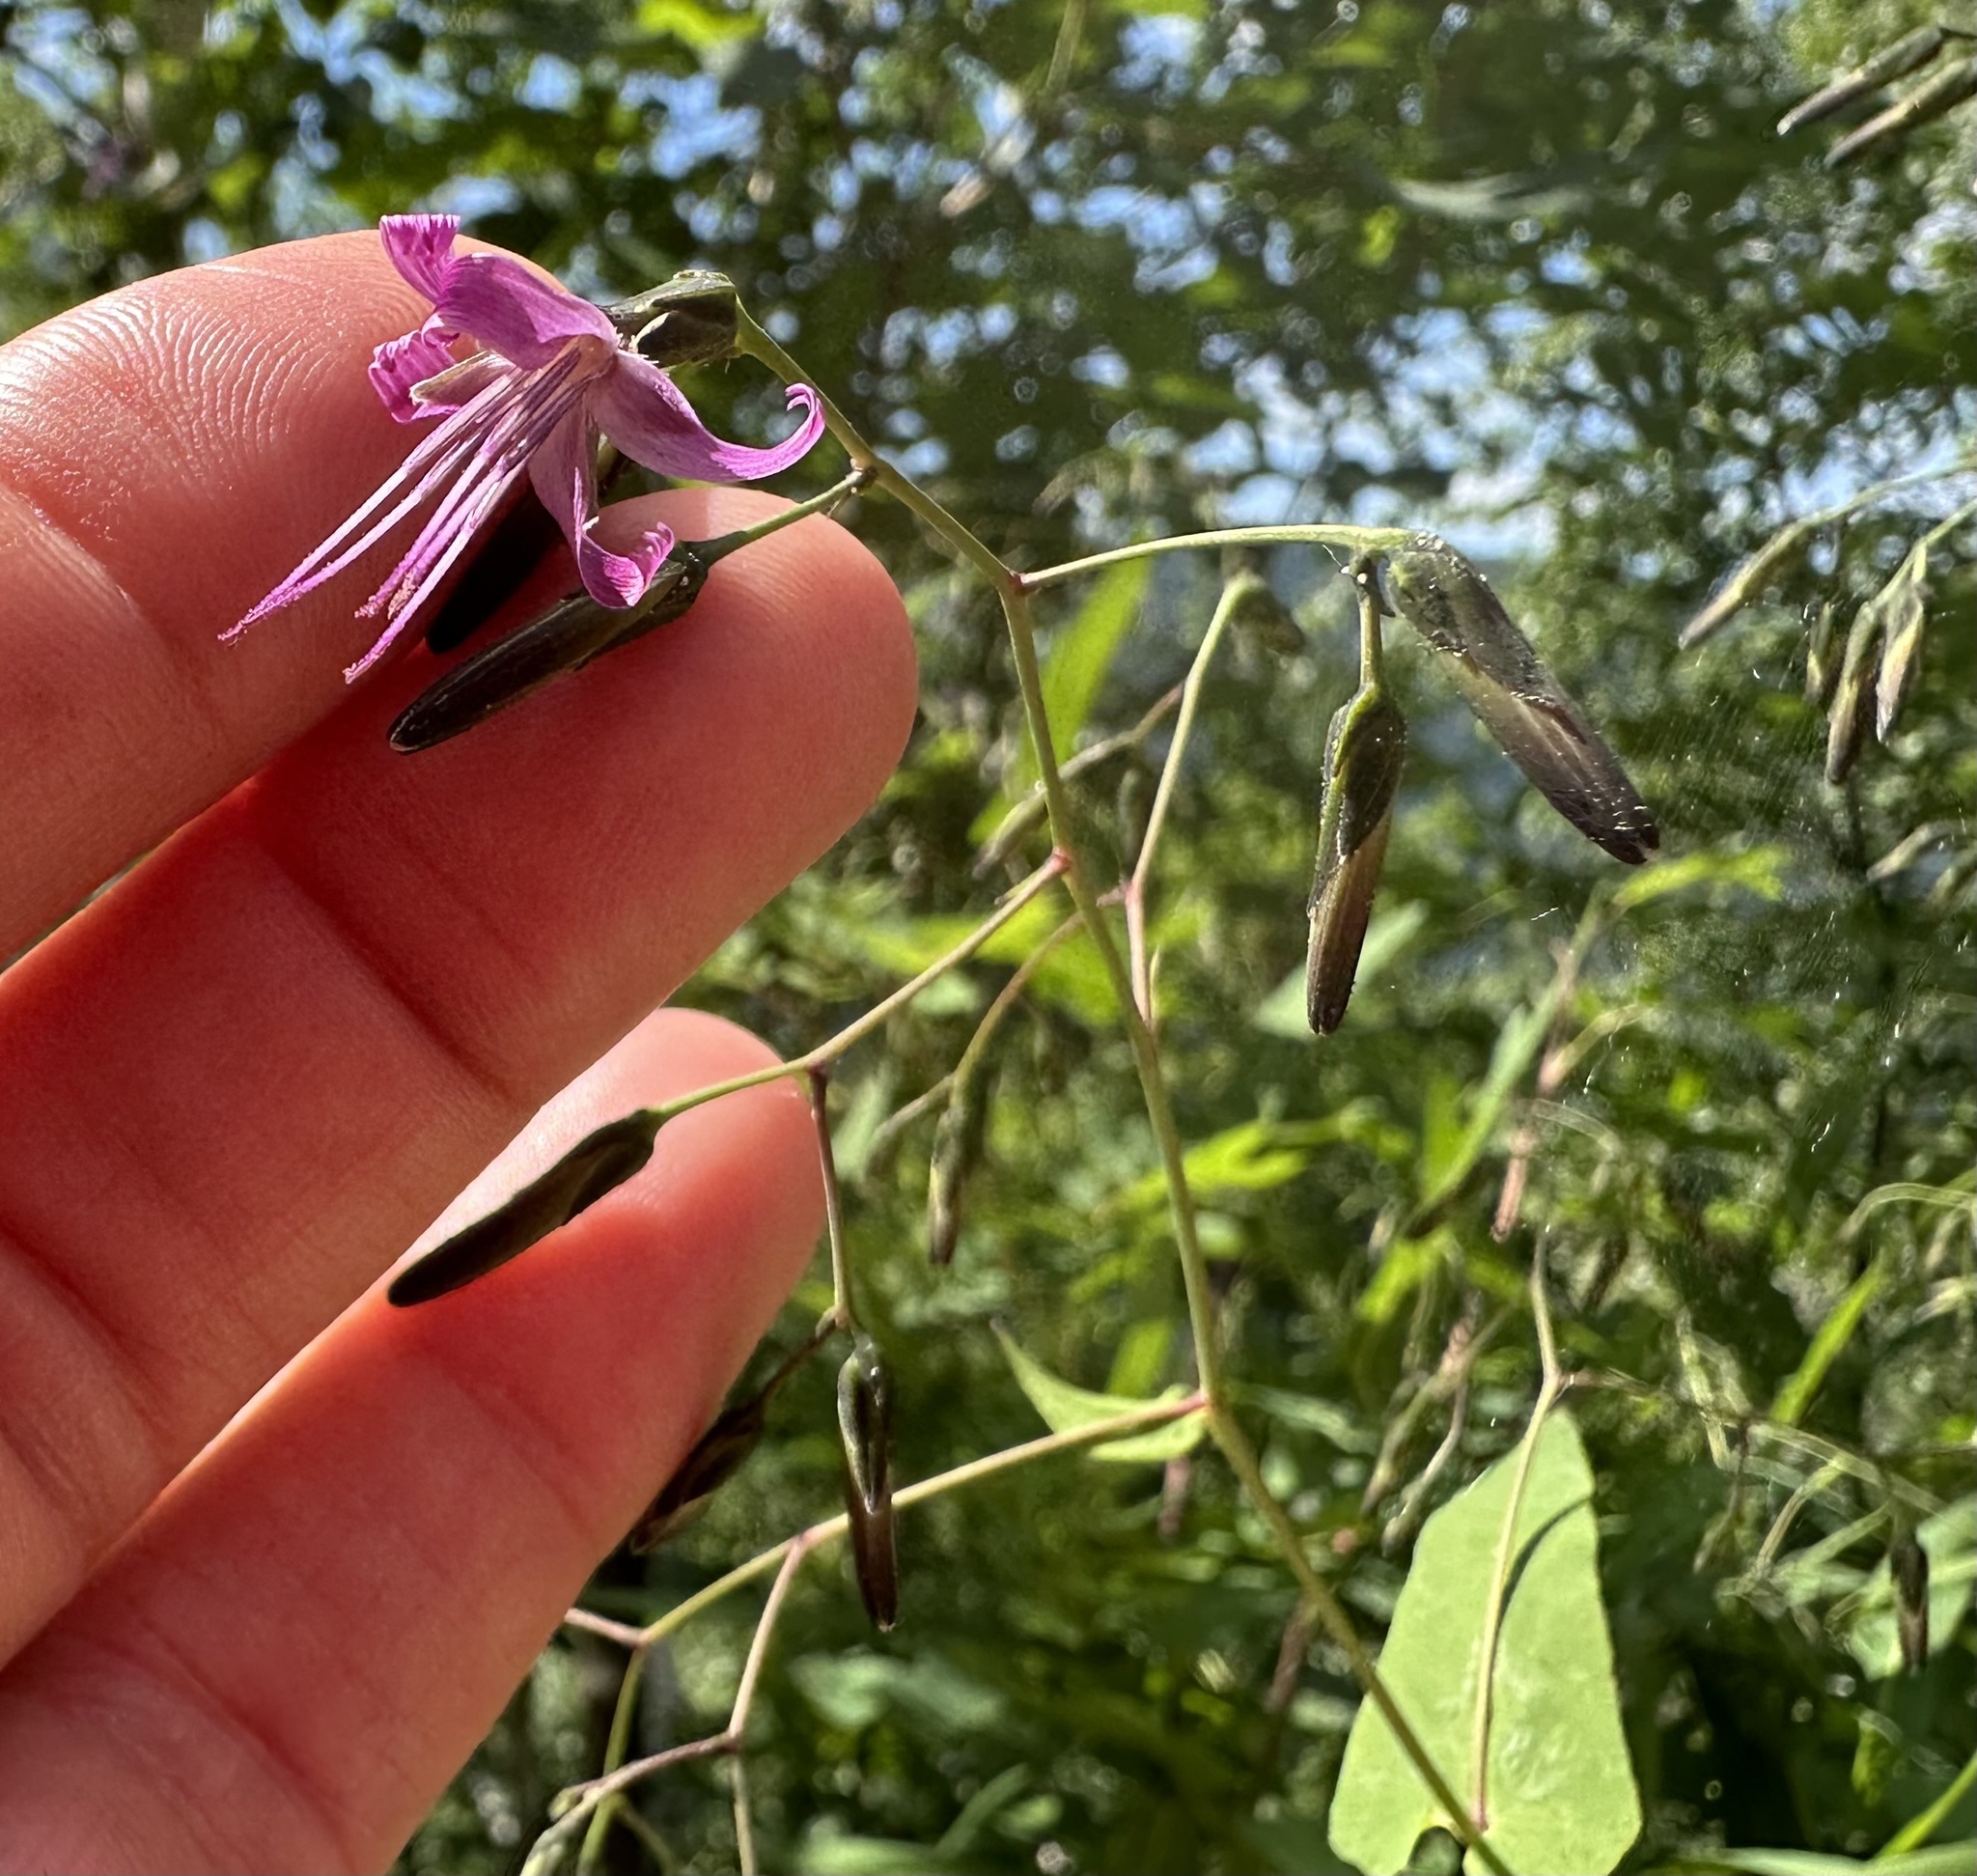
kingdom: Plantae
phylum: Tracheophyta
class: Magnoliopsida
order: Asterales
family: Asteraceae
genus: Prenanthes
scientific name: Prenanthes purpurea
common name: Purple lettuce
